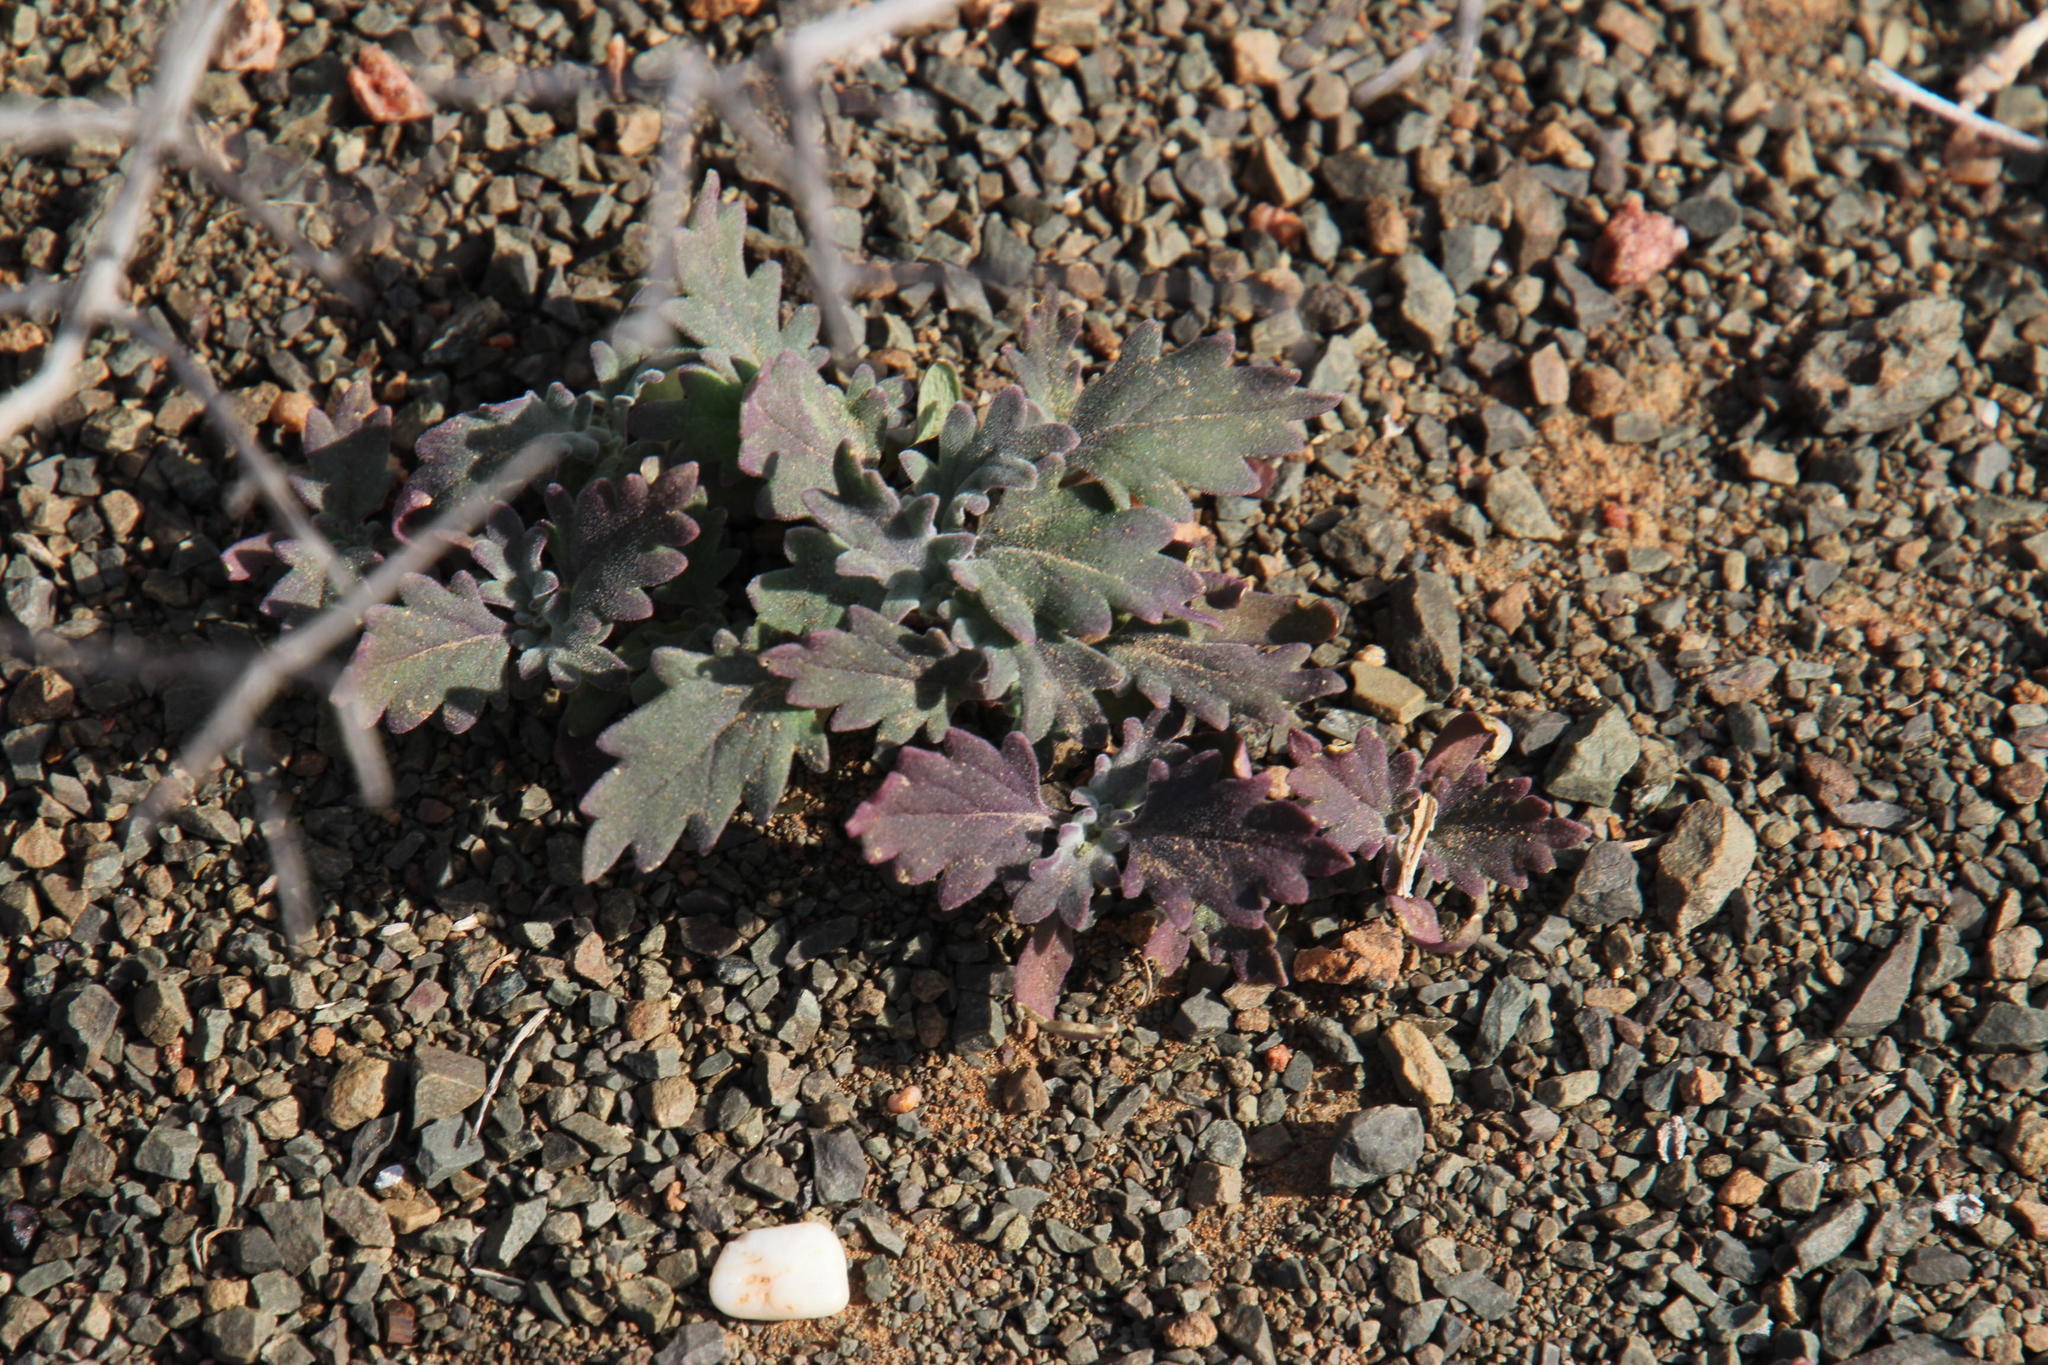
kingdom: Plantae
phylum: Tracheophyta
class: Magnoliopsida
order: Malvales
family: Malvaceae
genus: Hermannia
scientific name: Hermannia depressa
